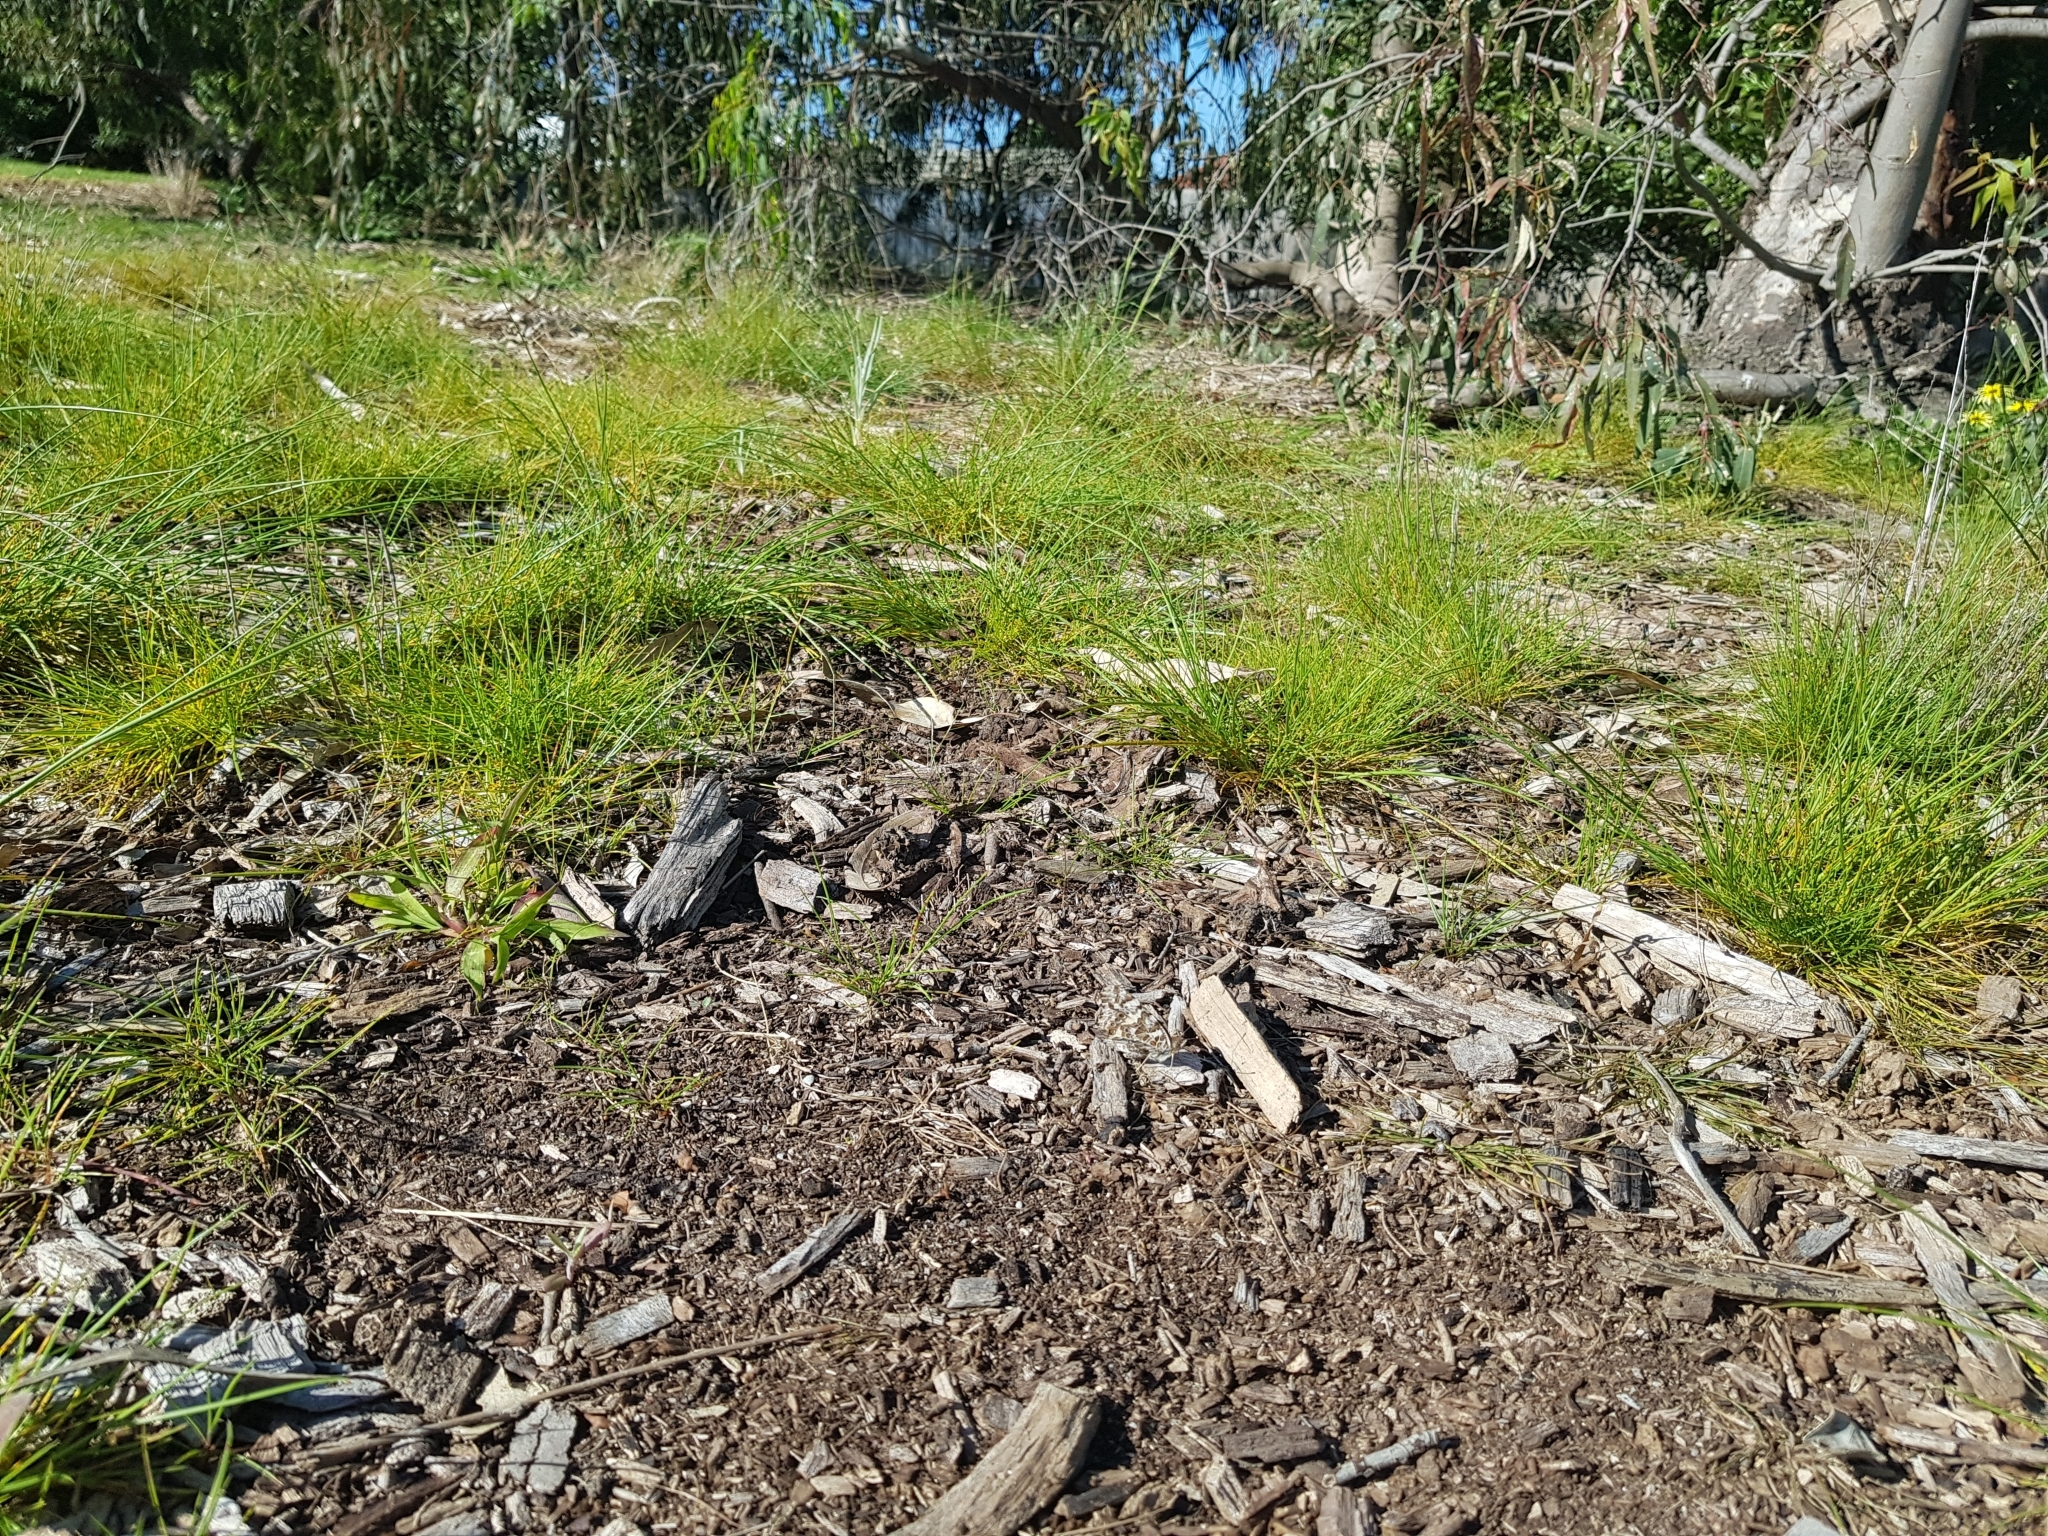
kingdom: Animalia
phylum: Arthropoda
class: Insecta
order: Lepidoptera
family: Nymphalidae
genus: Vanessa
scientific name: Vanessa kershawi
